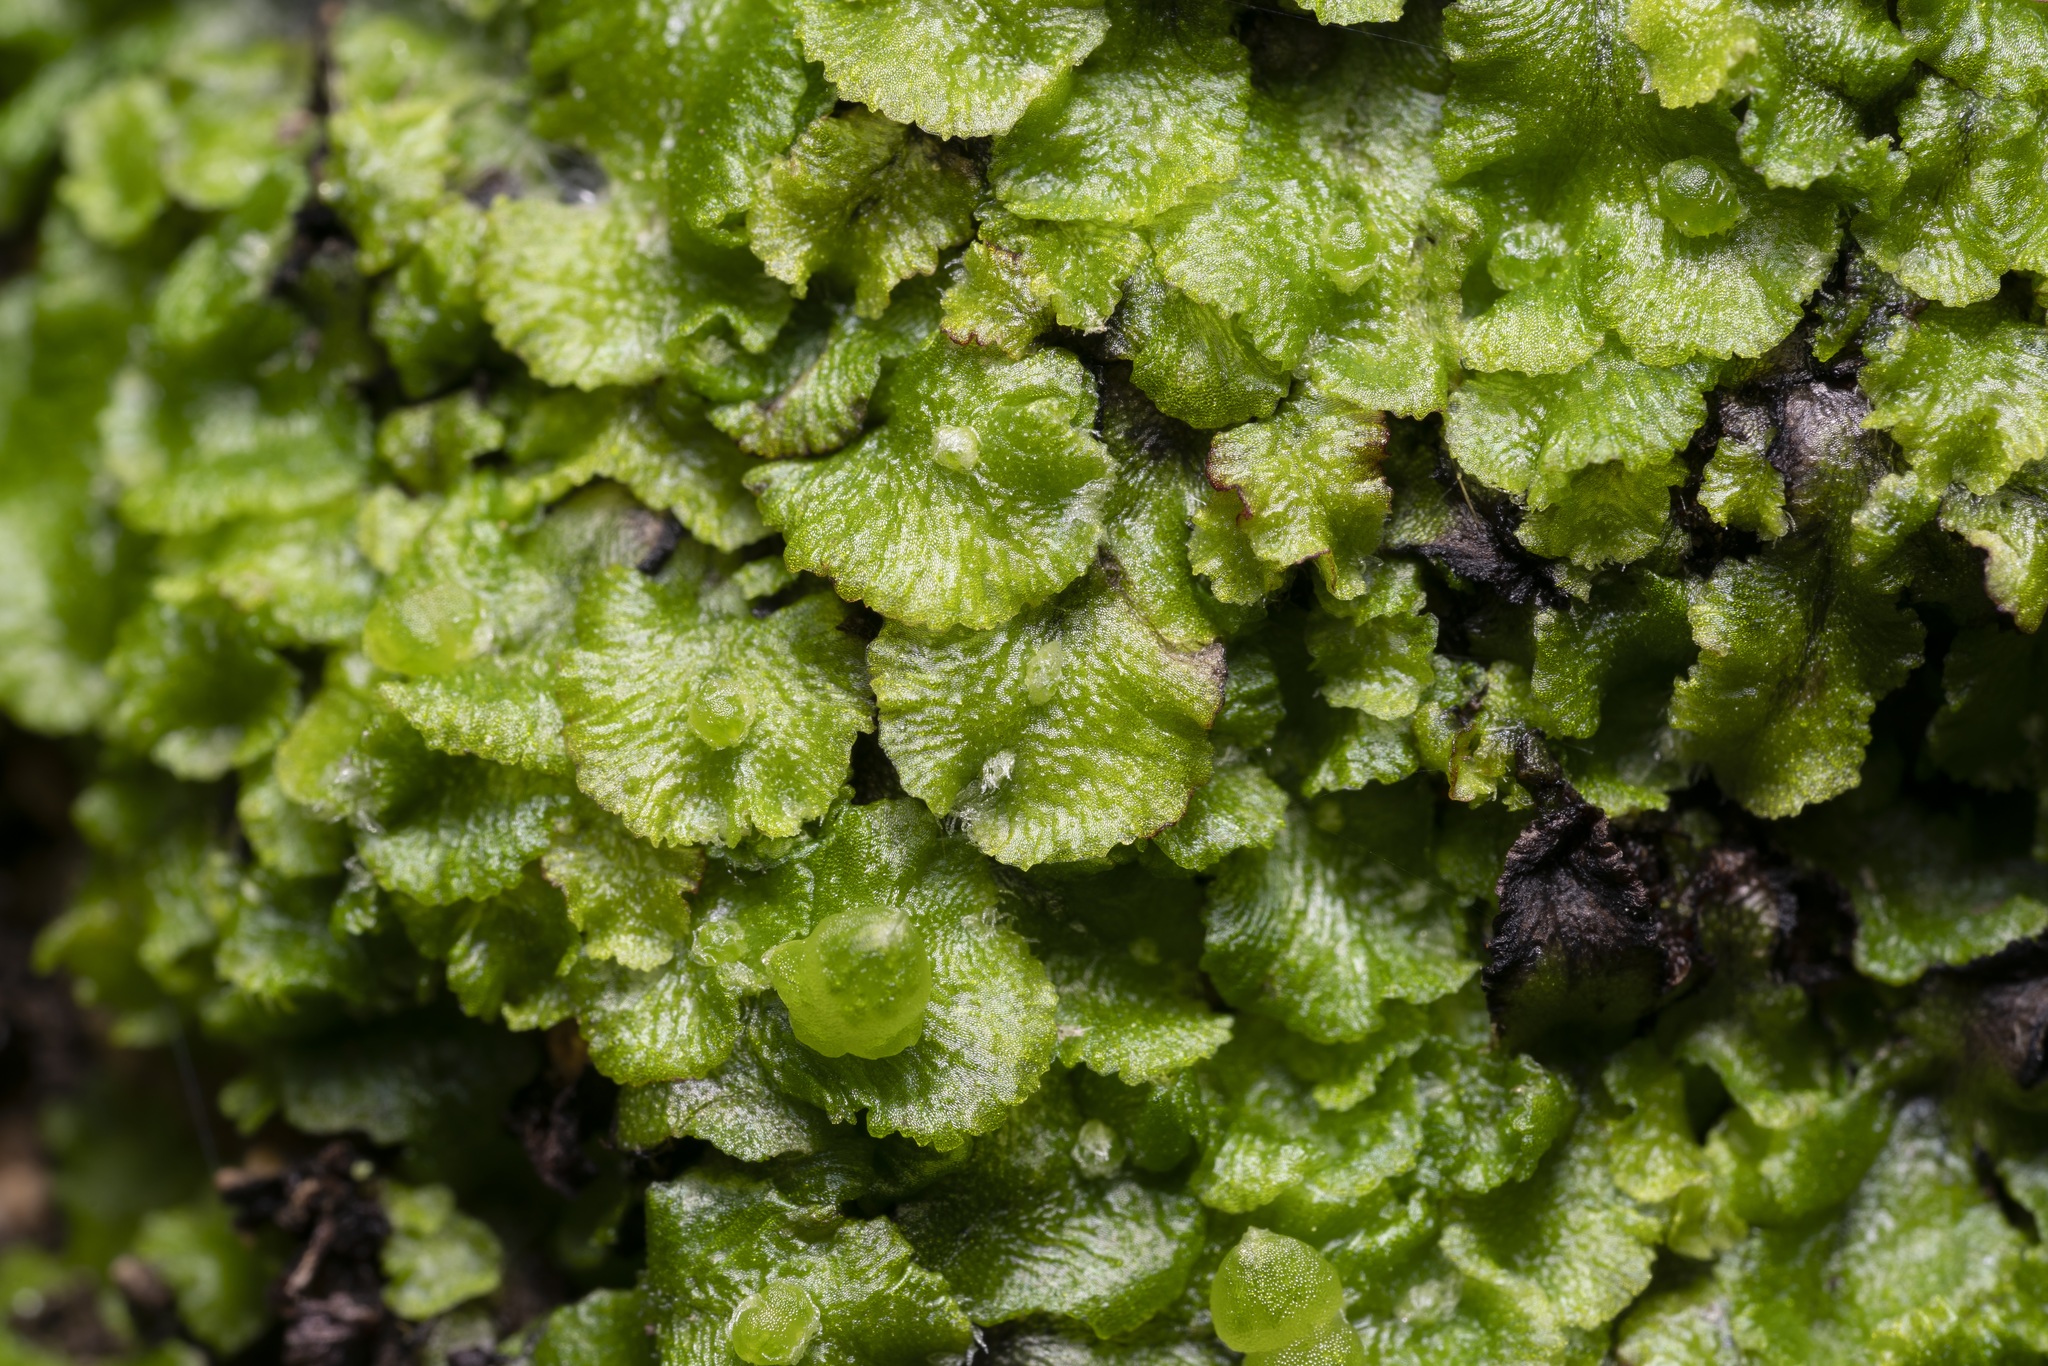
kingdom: Plantae
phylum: Marchantiophyta
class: Marchantiopsida
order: Marchantiales
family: Cleveaceae
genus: Clevea
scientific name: Clevea spathysii
